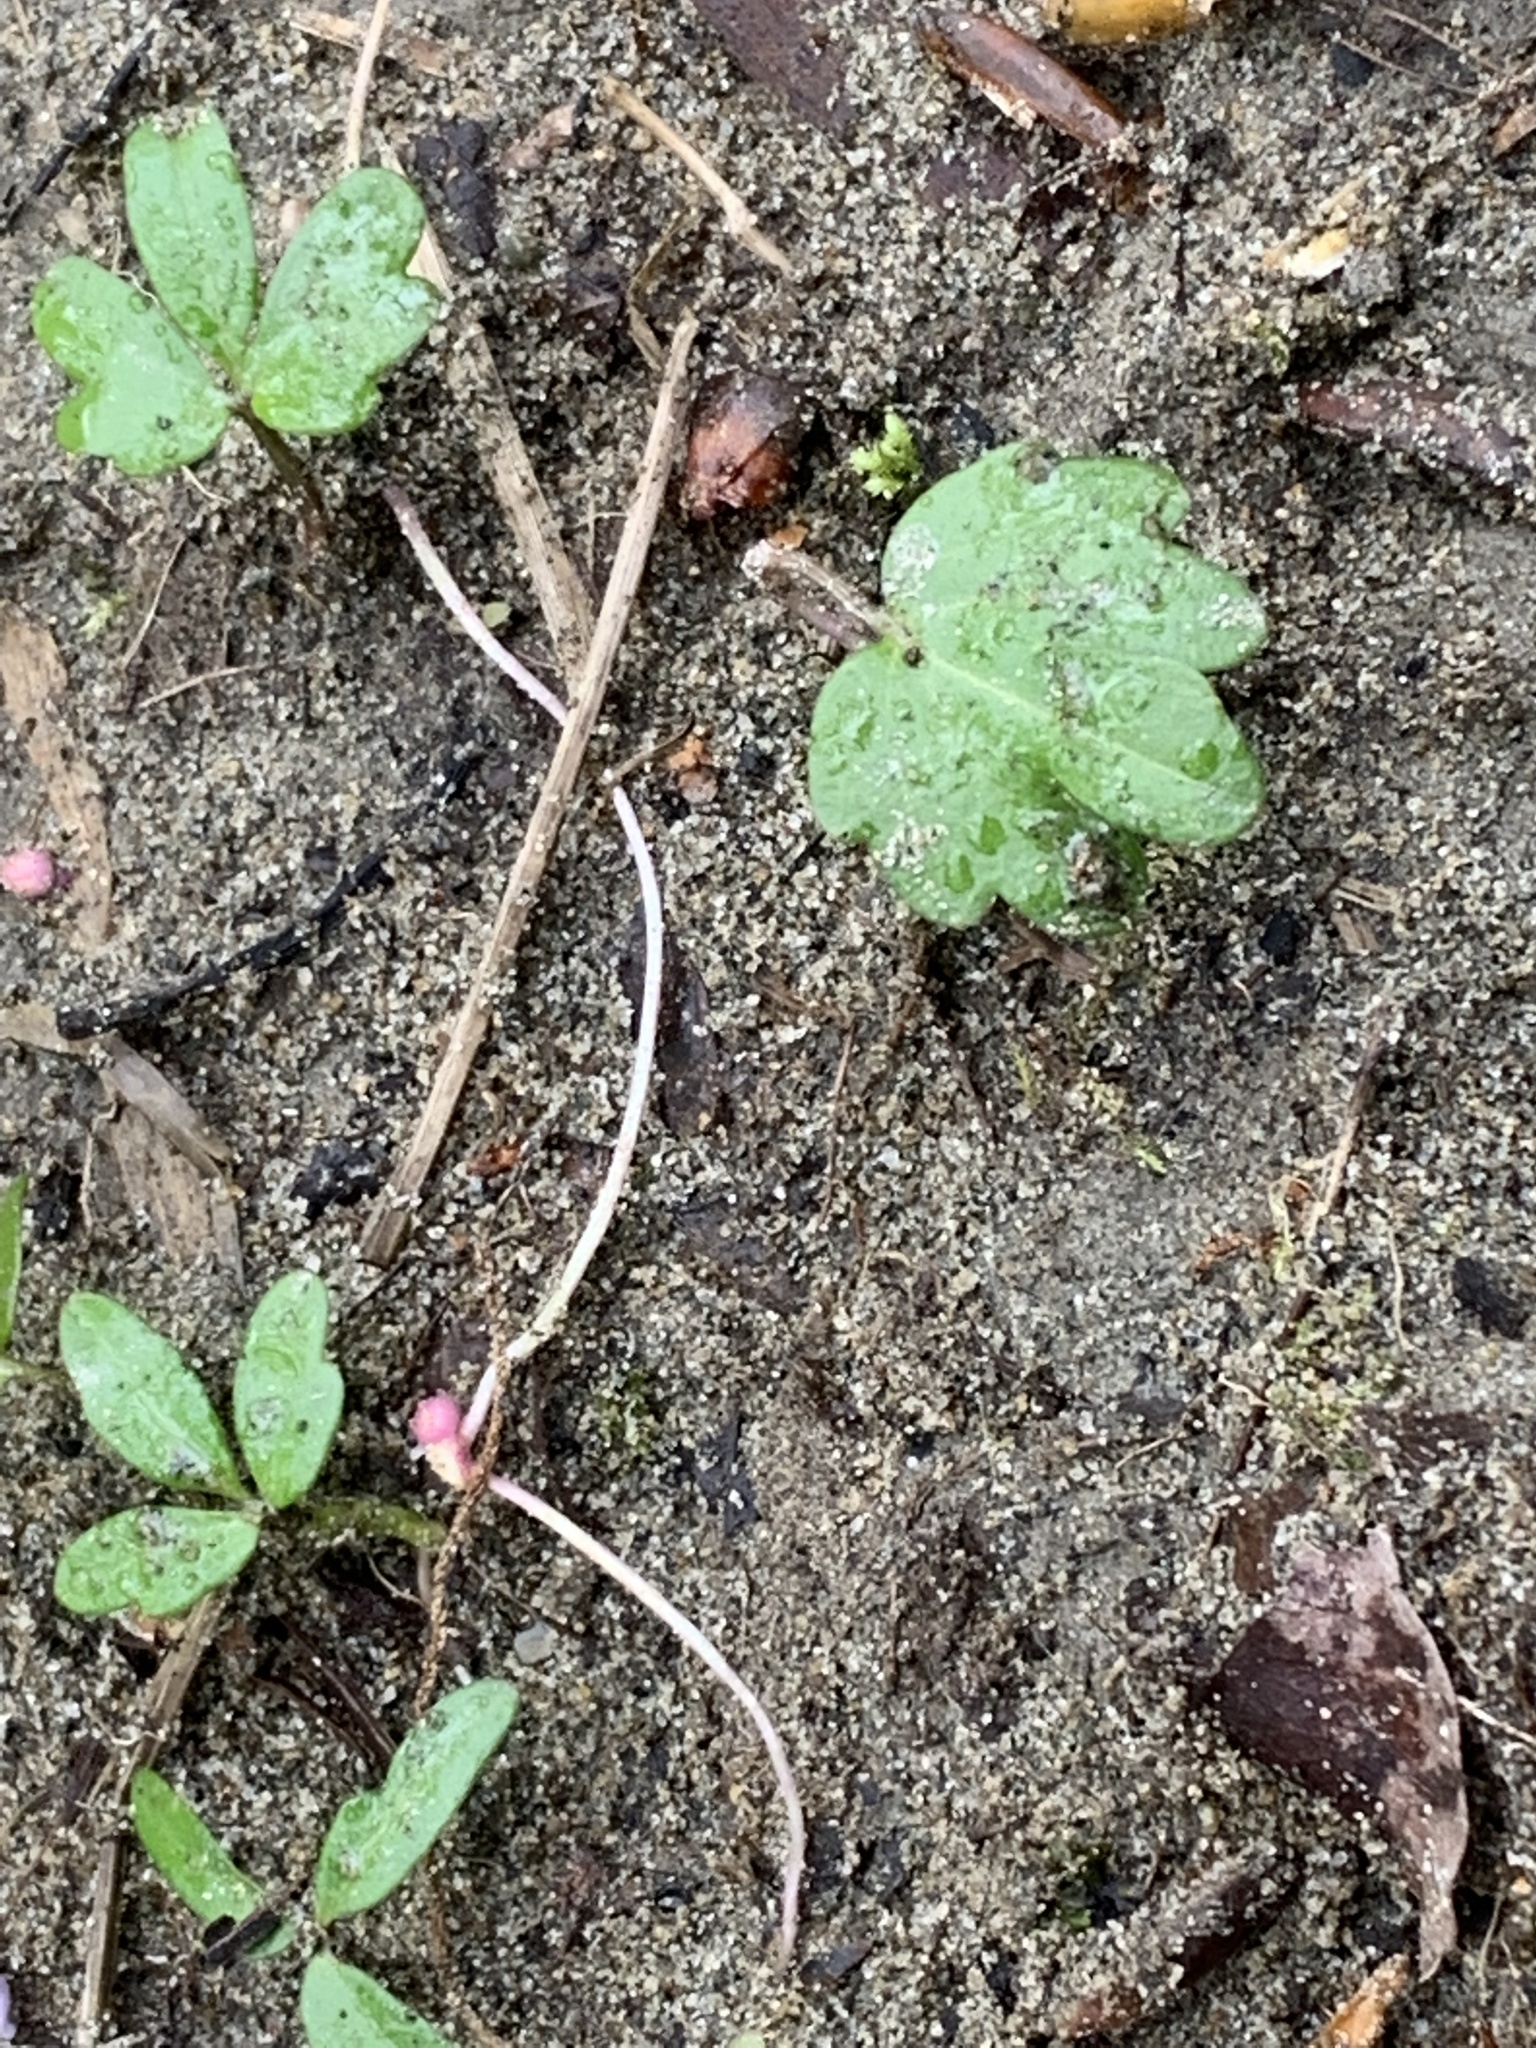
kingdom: Plantae
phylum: Tracheophyta
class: Magnoliopsida
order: Brassicales
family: Brassicaceae
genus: Cardamine
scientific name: Cardamine nuttallii
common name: Nuttall's toothwort
